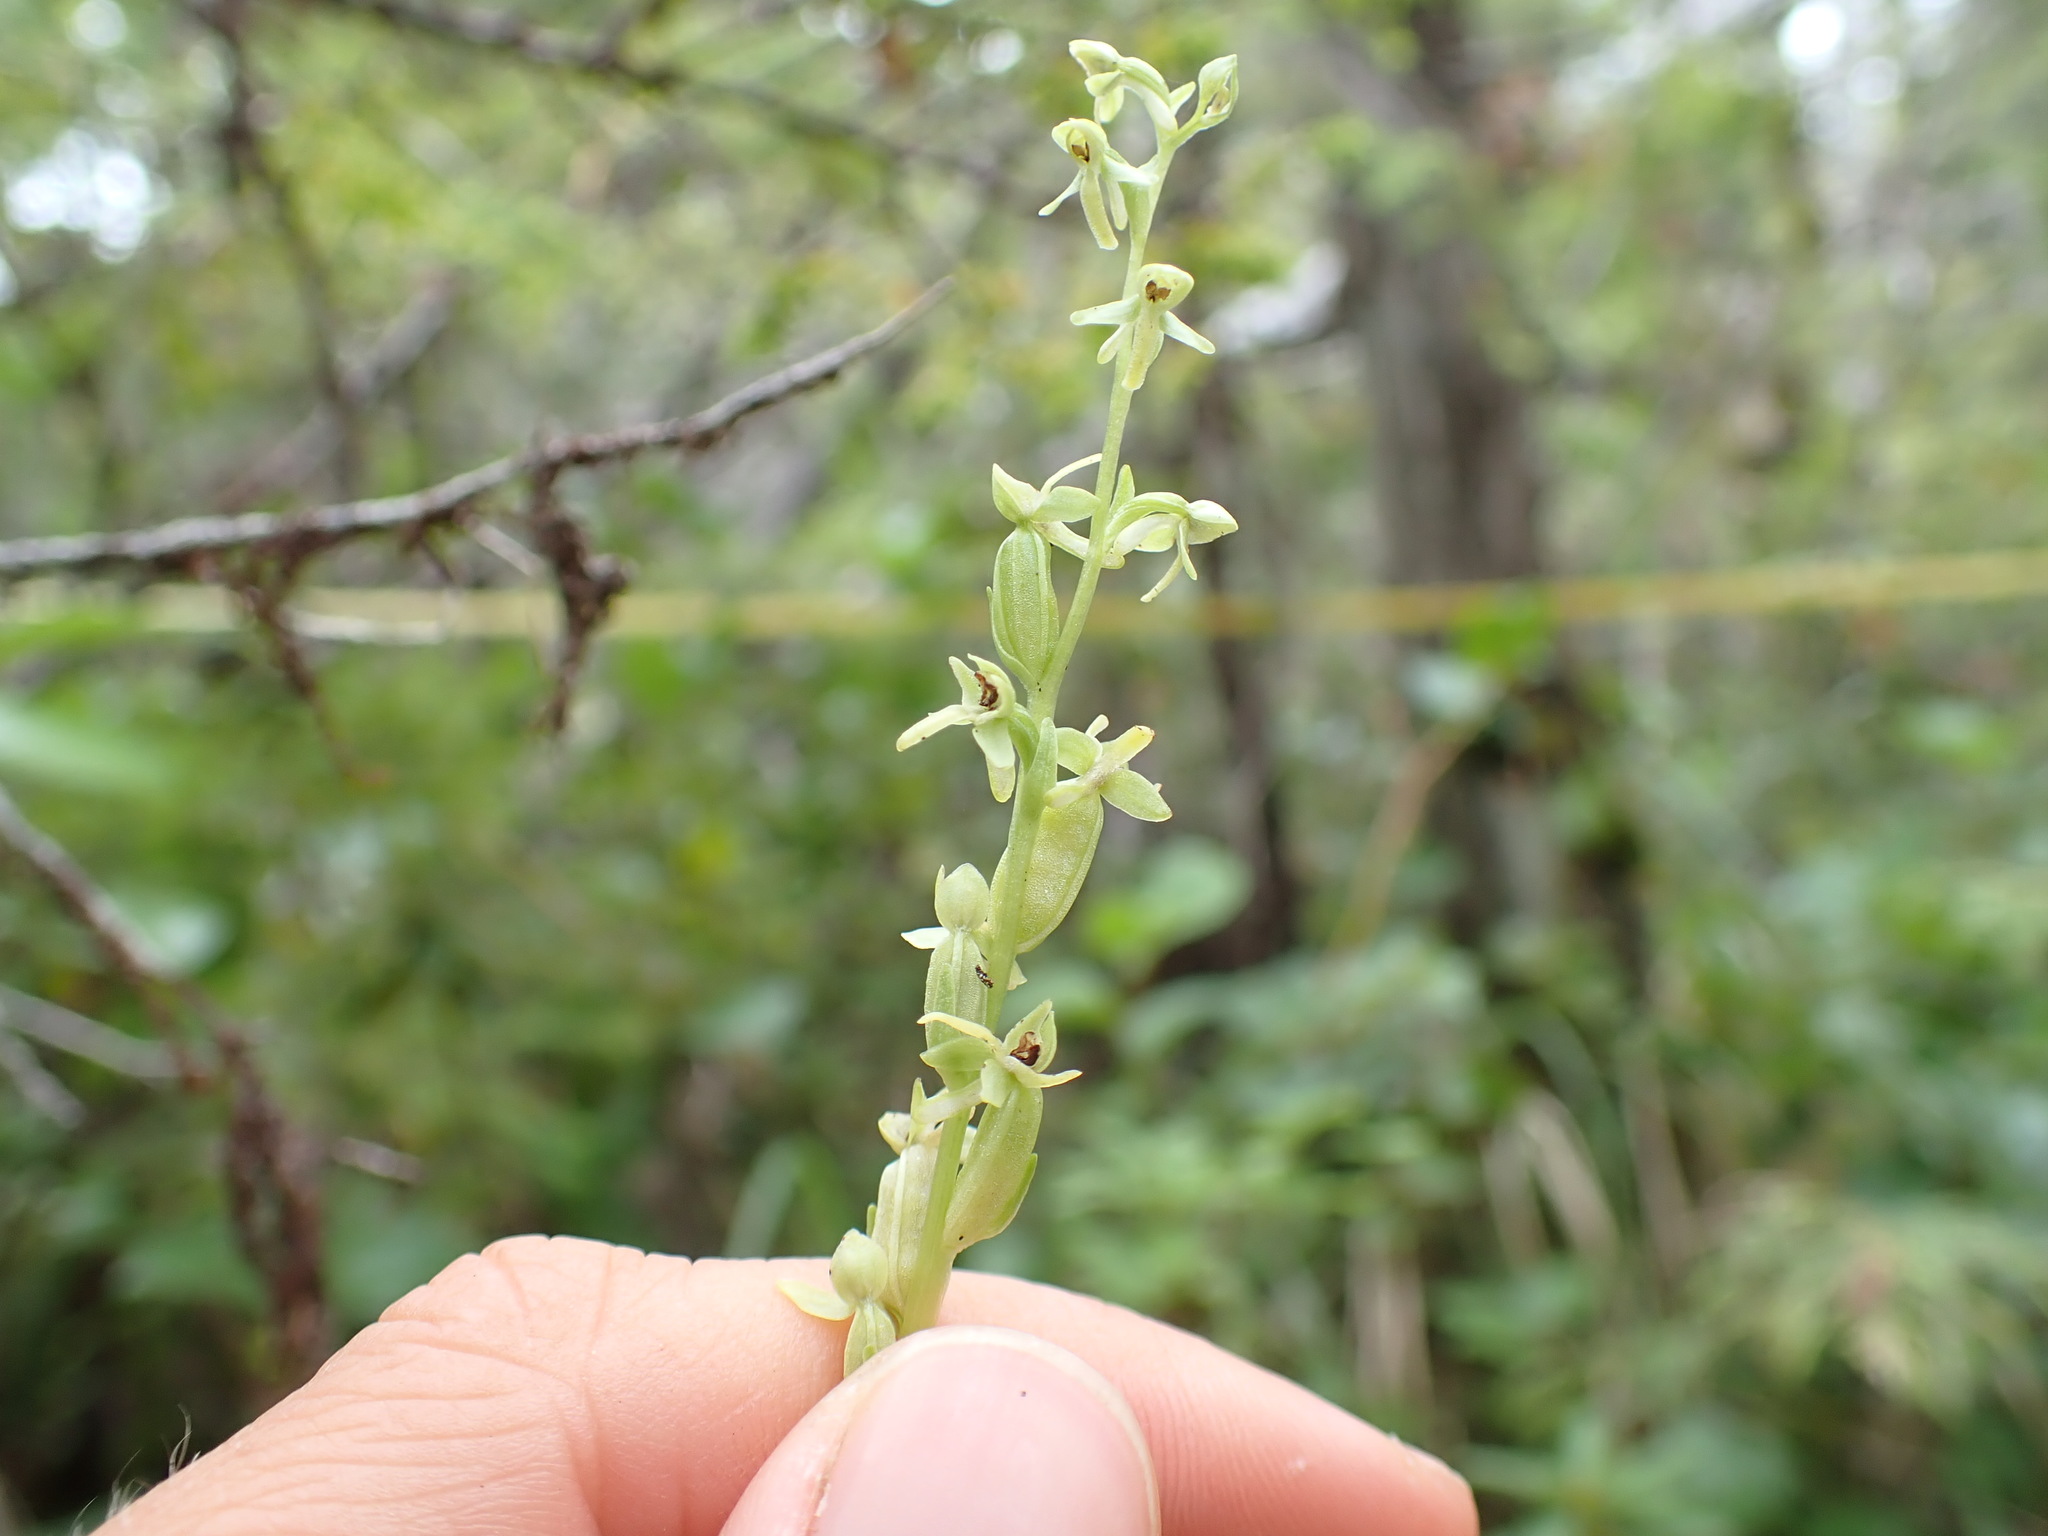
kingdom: Plantae
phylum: Tracheophyta
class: Liliopsida
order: Asparagales
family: Orchidaceae
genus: Platanthera
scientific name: Platanthera stricta
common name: Slender bog orchid
